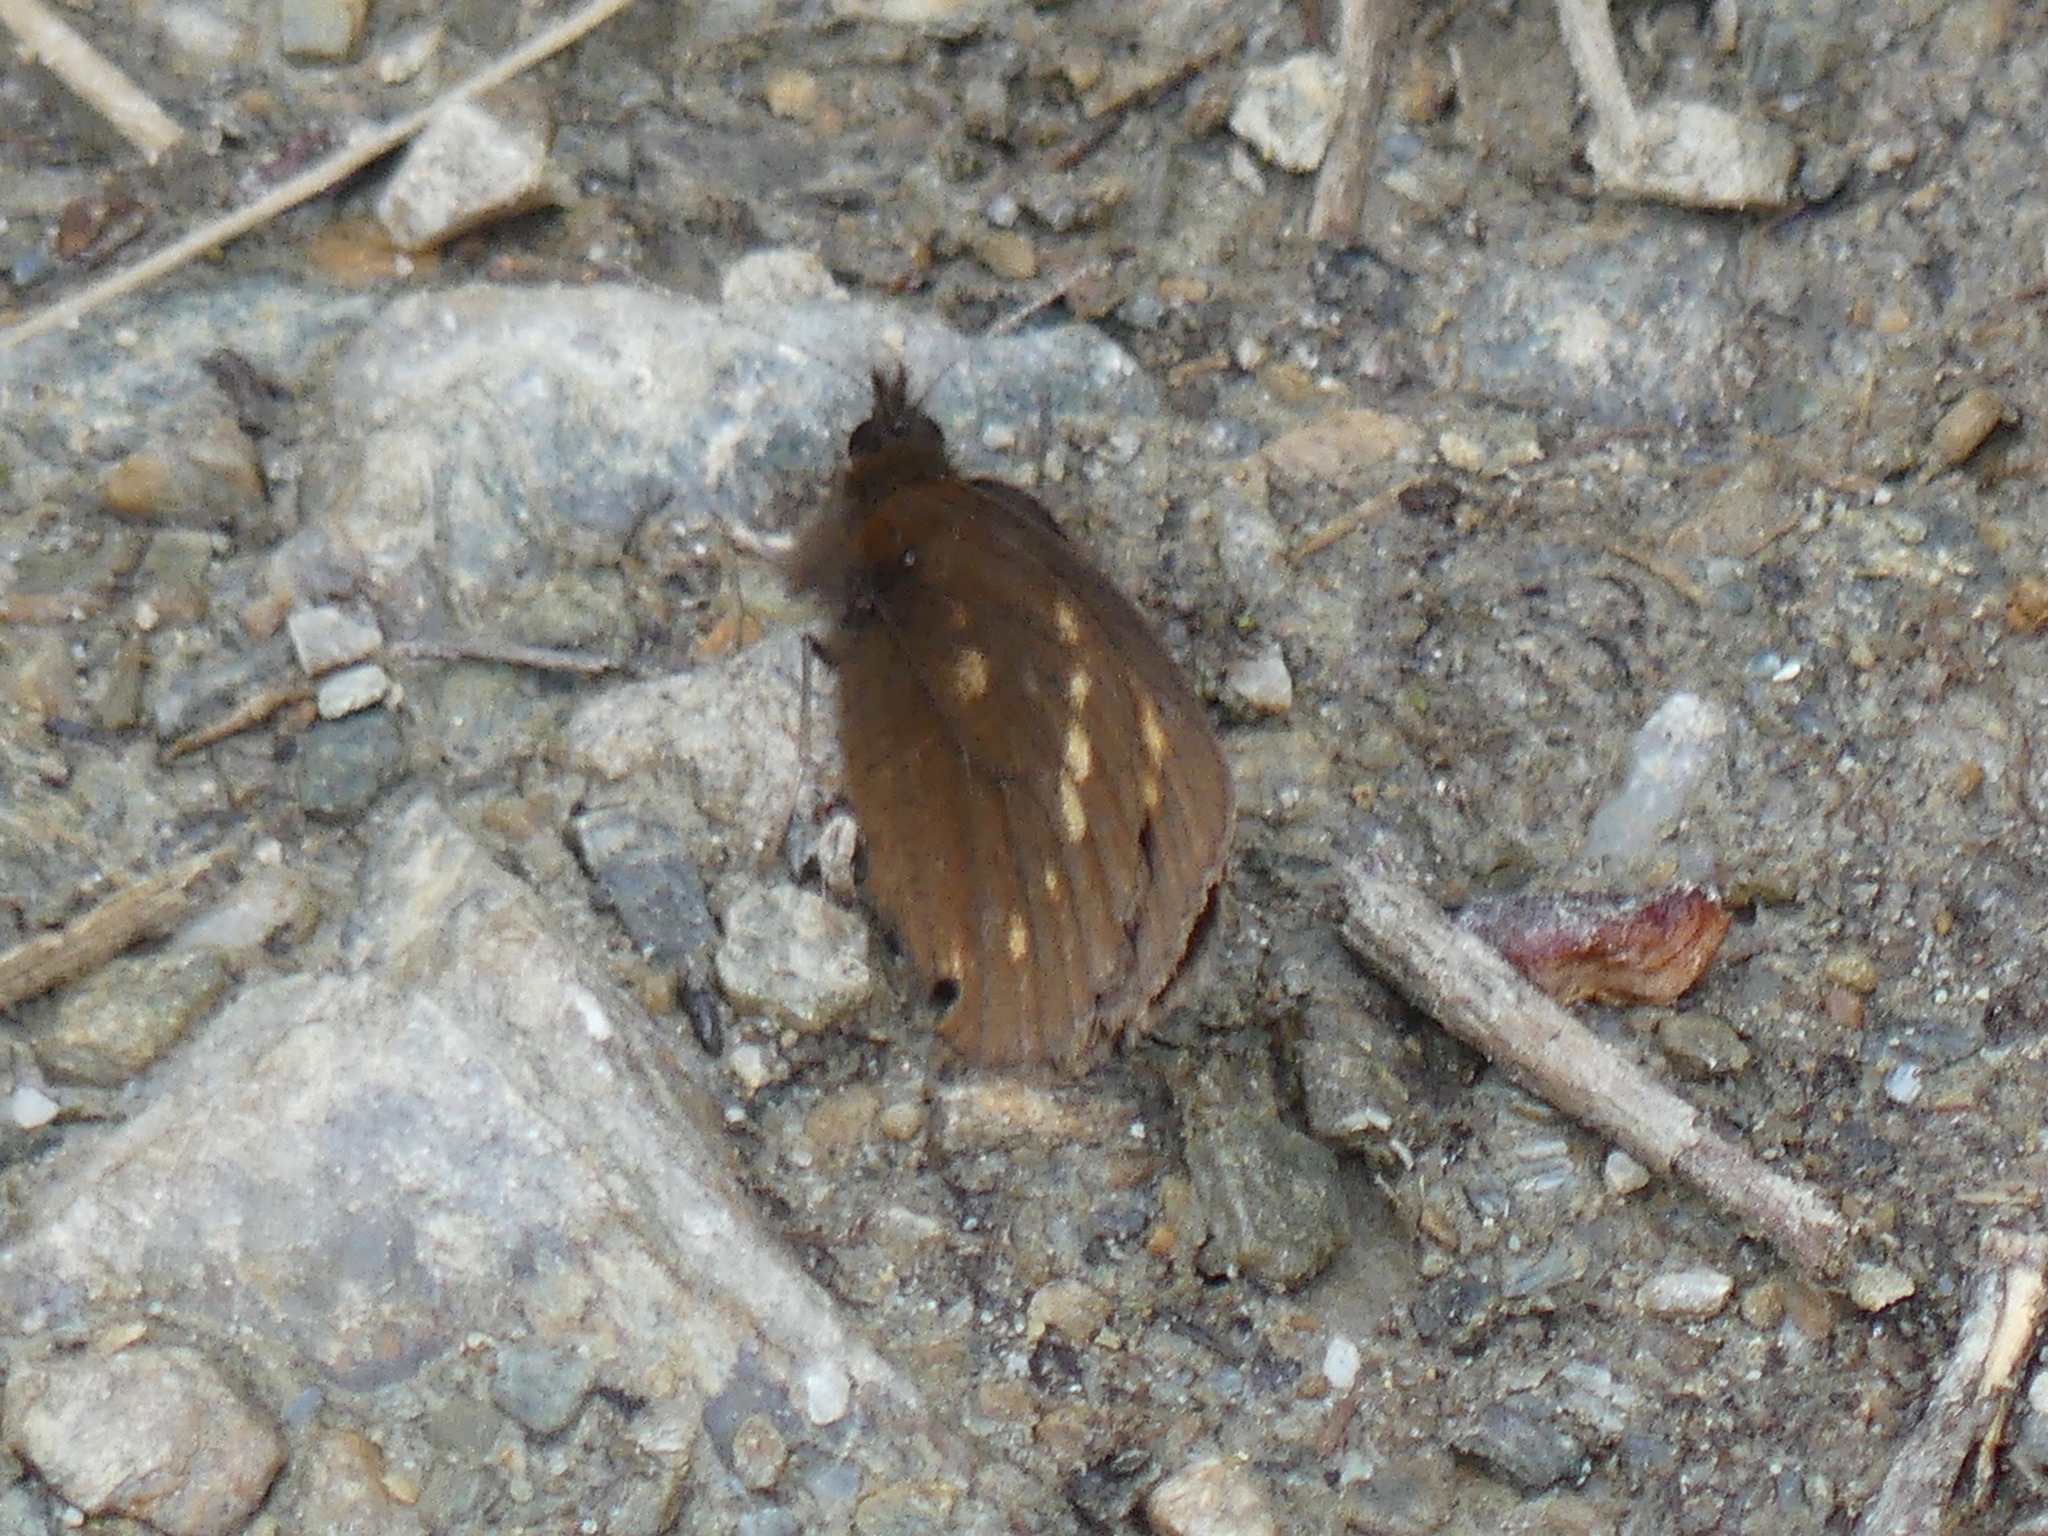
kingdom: Animalia
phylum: Arthropoda
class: Insecta
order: Lepidoptera
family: Nymphalidae
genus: Erebia
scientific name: Erebia pawloskii
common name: Theano alpine
